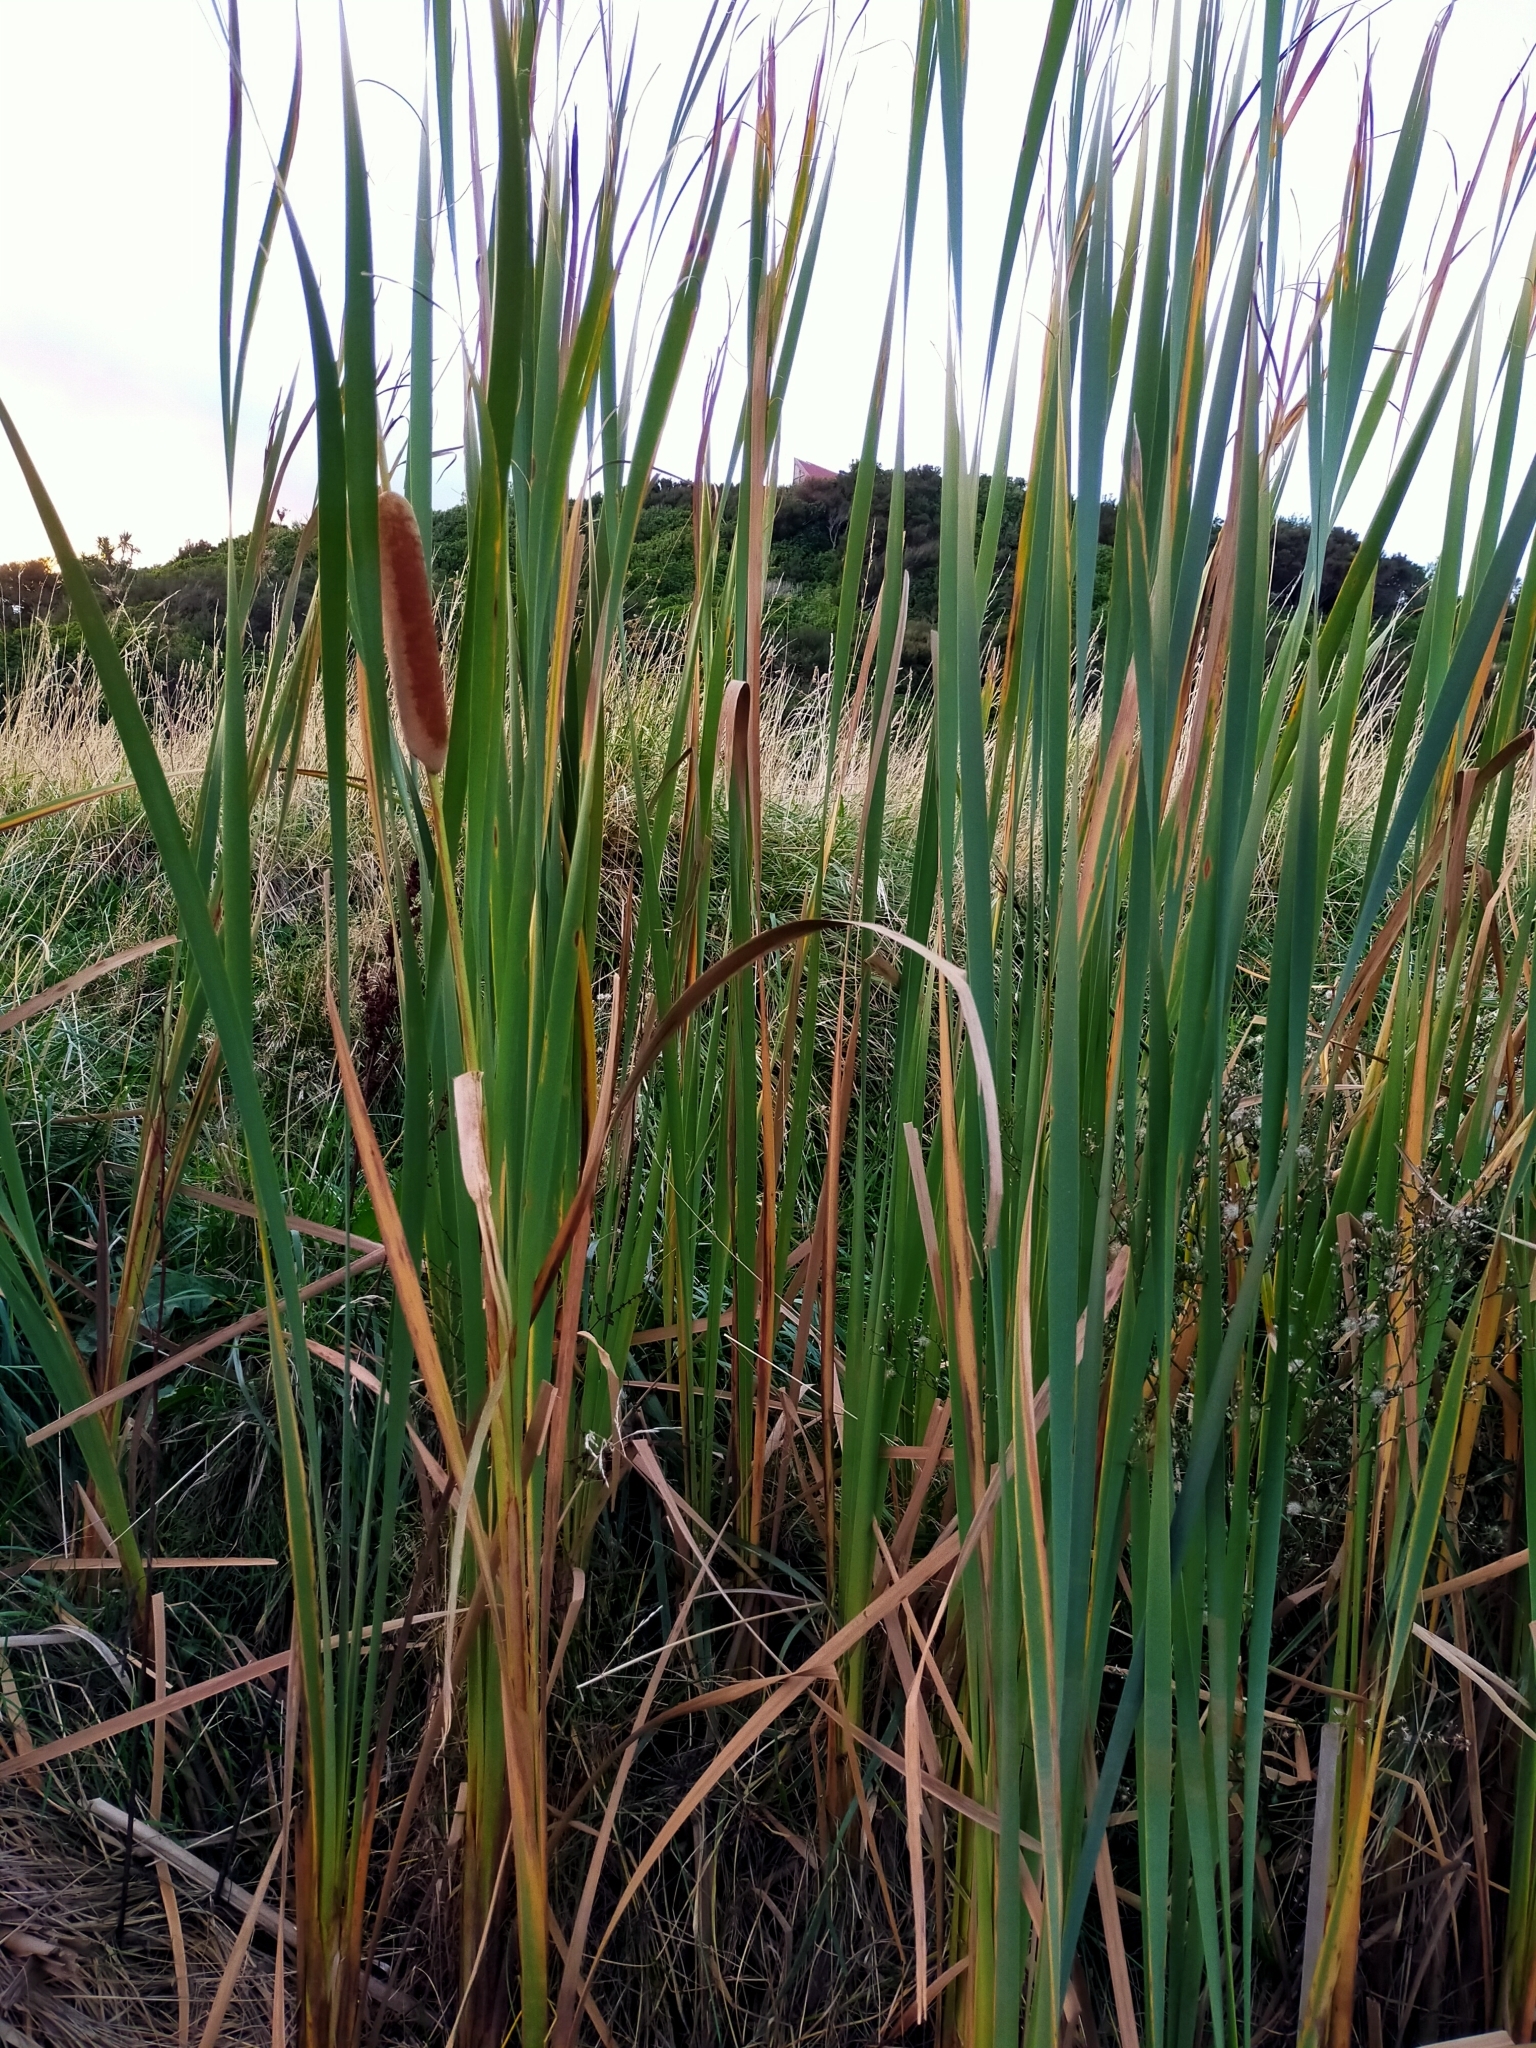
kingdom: Plantae
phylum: Tracheophyta
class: Liliopsida
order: Poales
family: Typhaceae
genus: Typha
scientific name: Typha orientalis
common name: Bullrush
